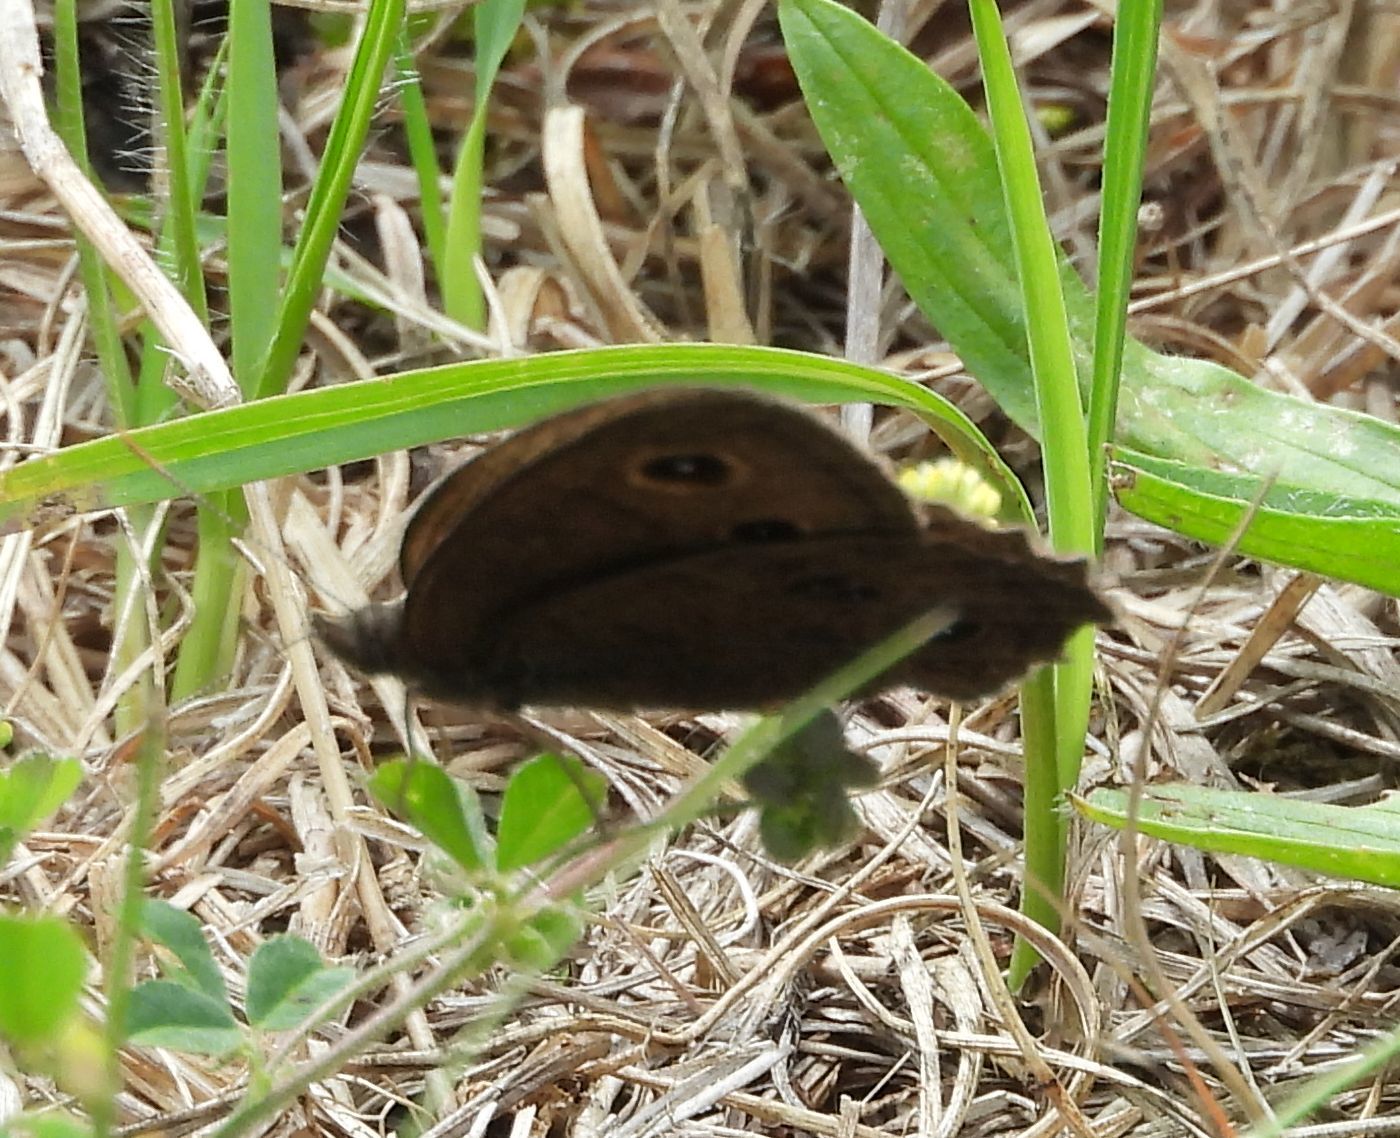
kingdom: Animalia
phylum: Arthropoda
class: Insecta
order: Lepidoptera
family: Nymphalidae
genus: Cercyonis
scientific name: Cercyonis pegala
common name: Common wood-nymph
